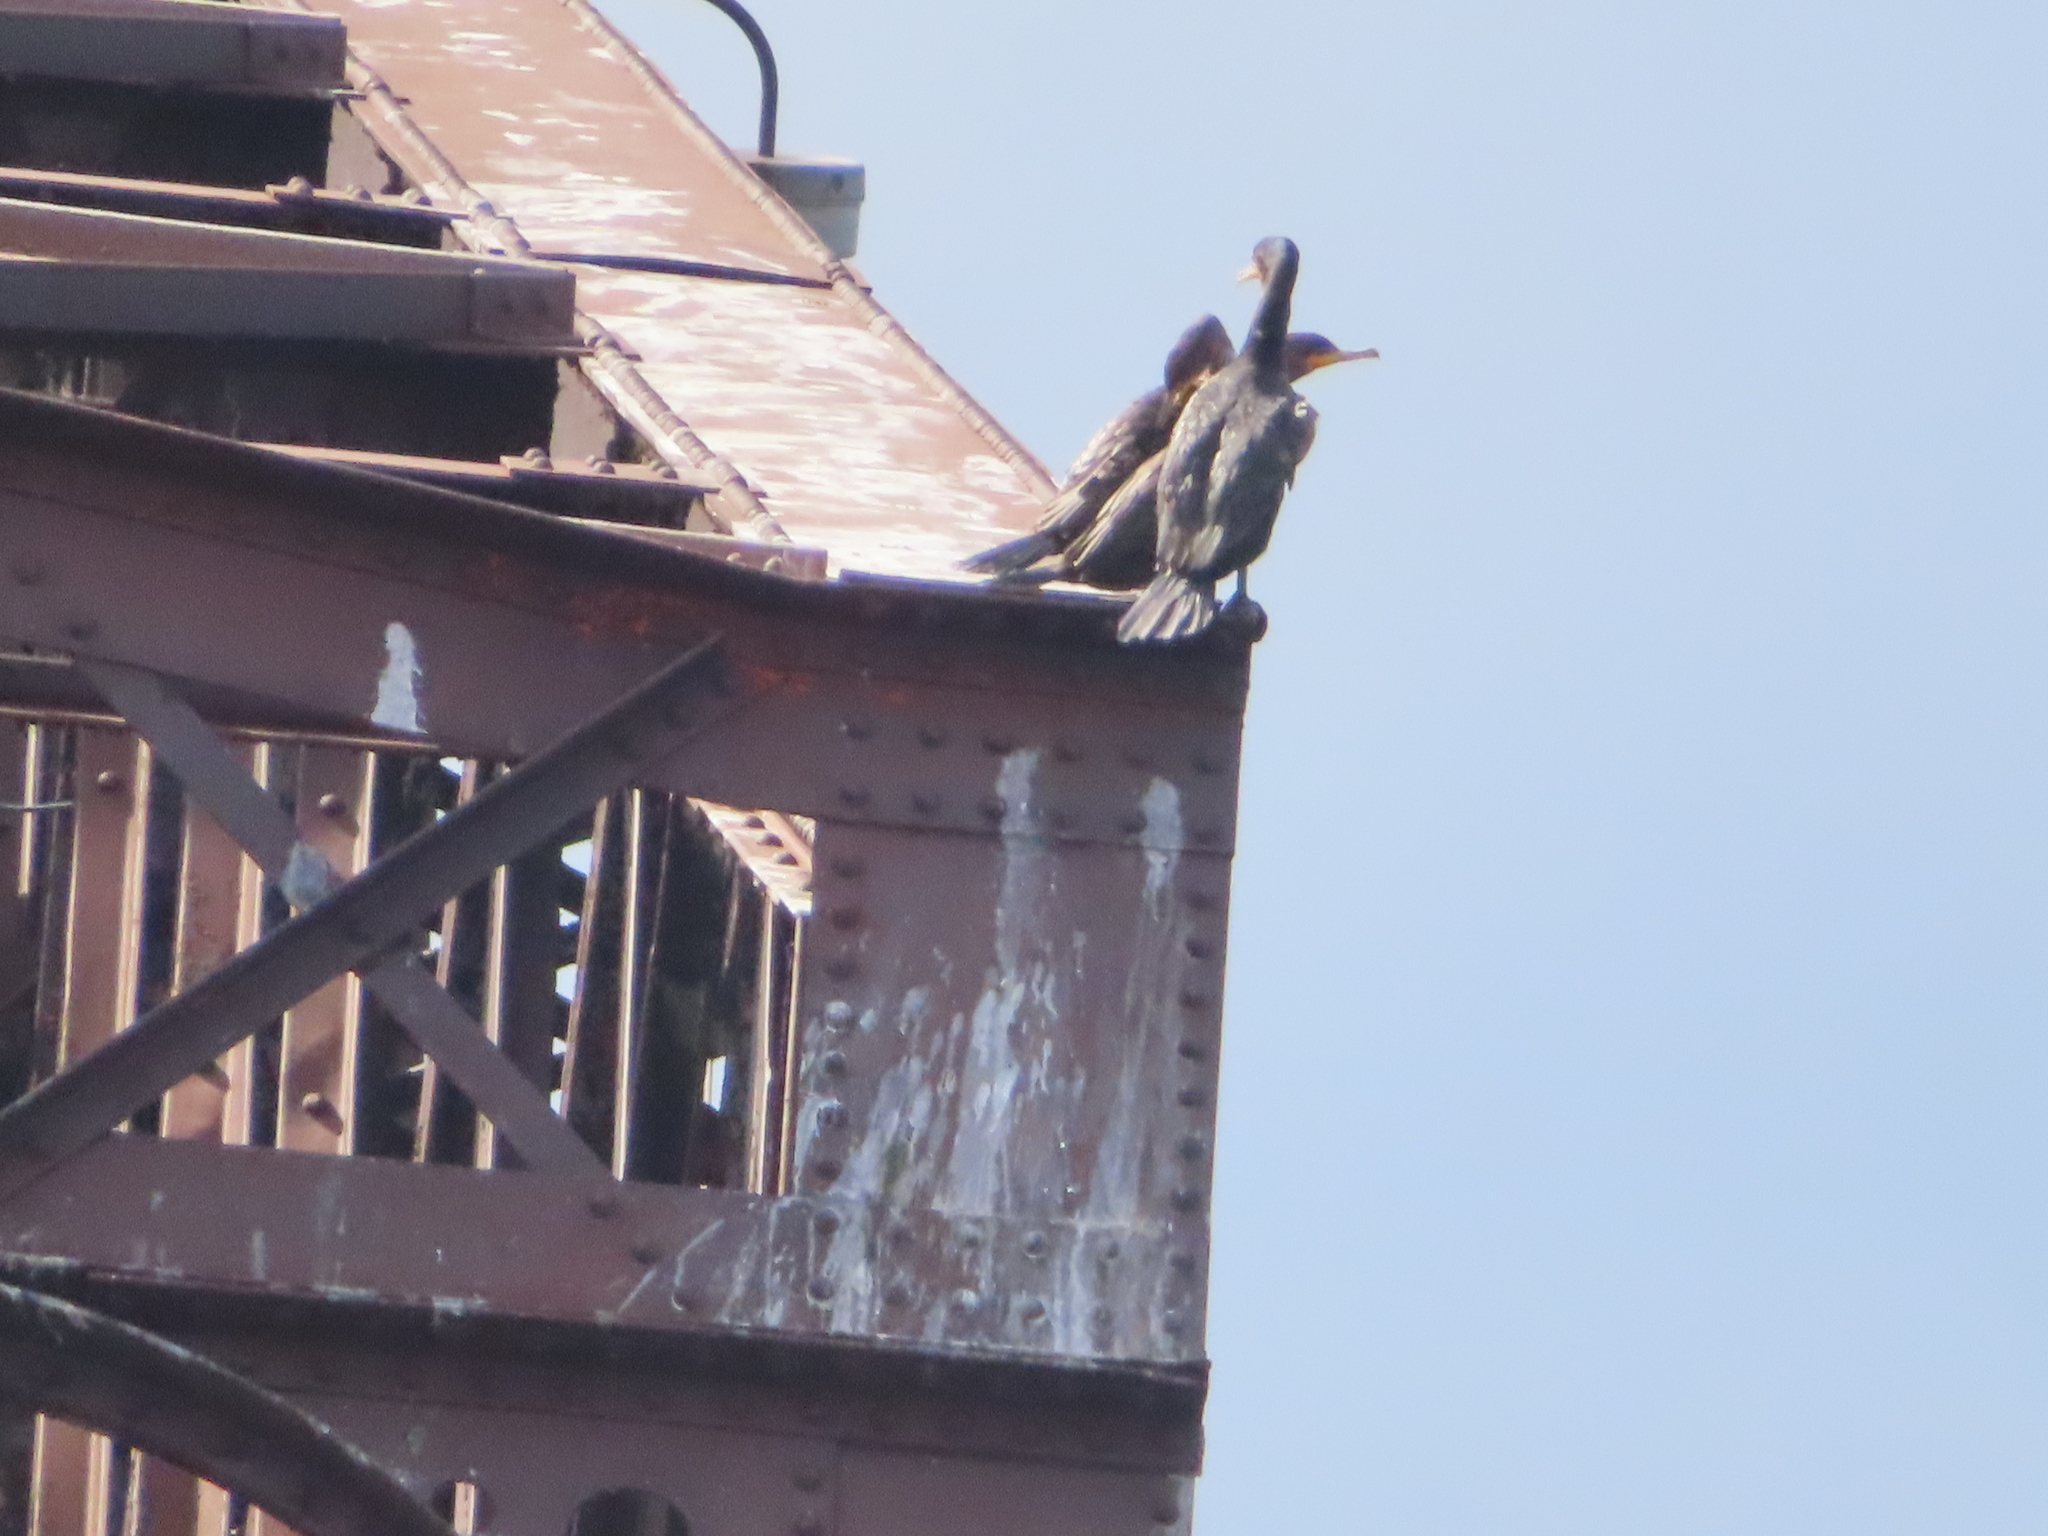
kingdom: Animalia
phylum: Chordata
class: Aves
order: Suliformes
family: Phalacrocoracidae
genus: Phalacrocorax
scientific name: Phalacrocorax auritus
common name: Double-crested cormorant
